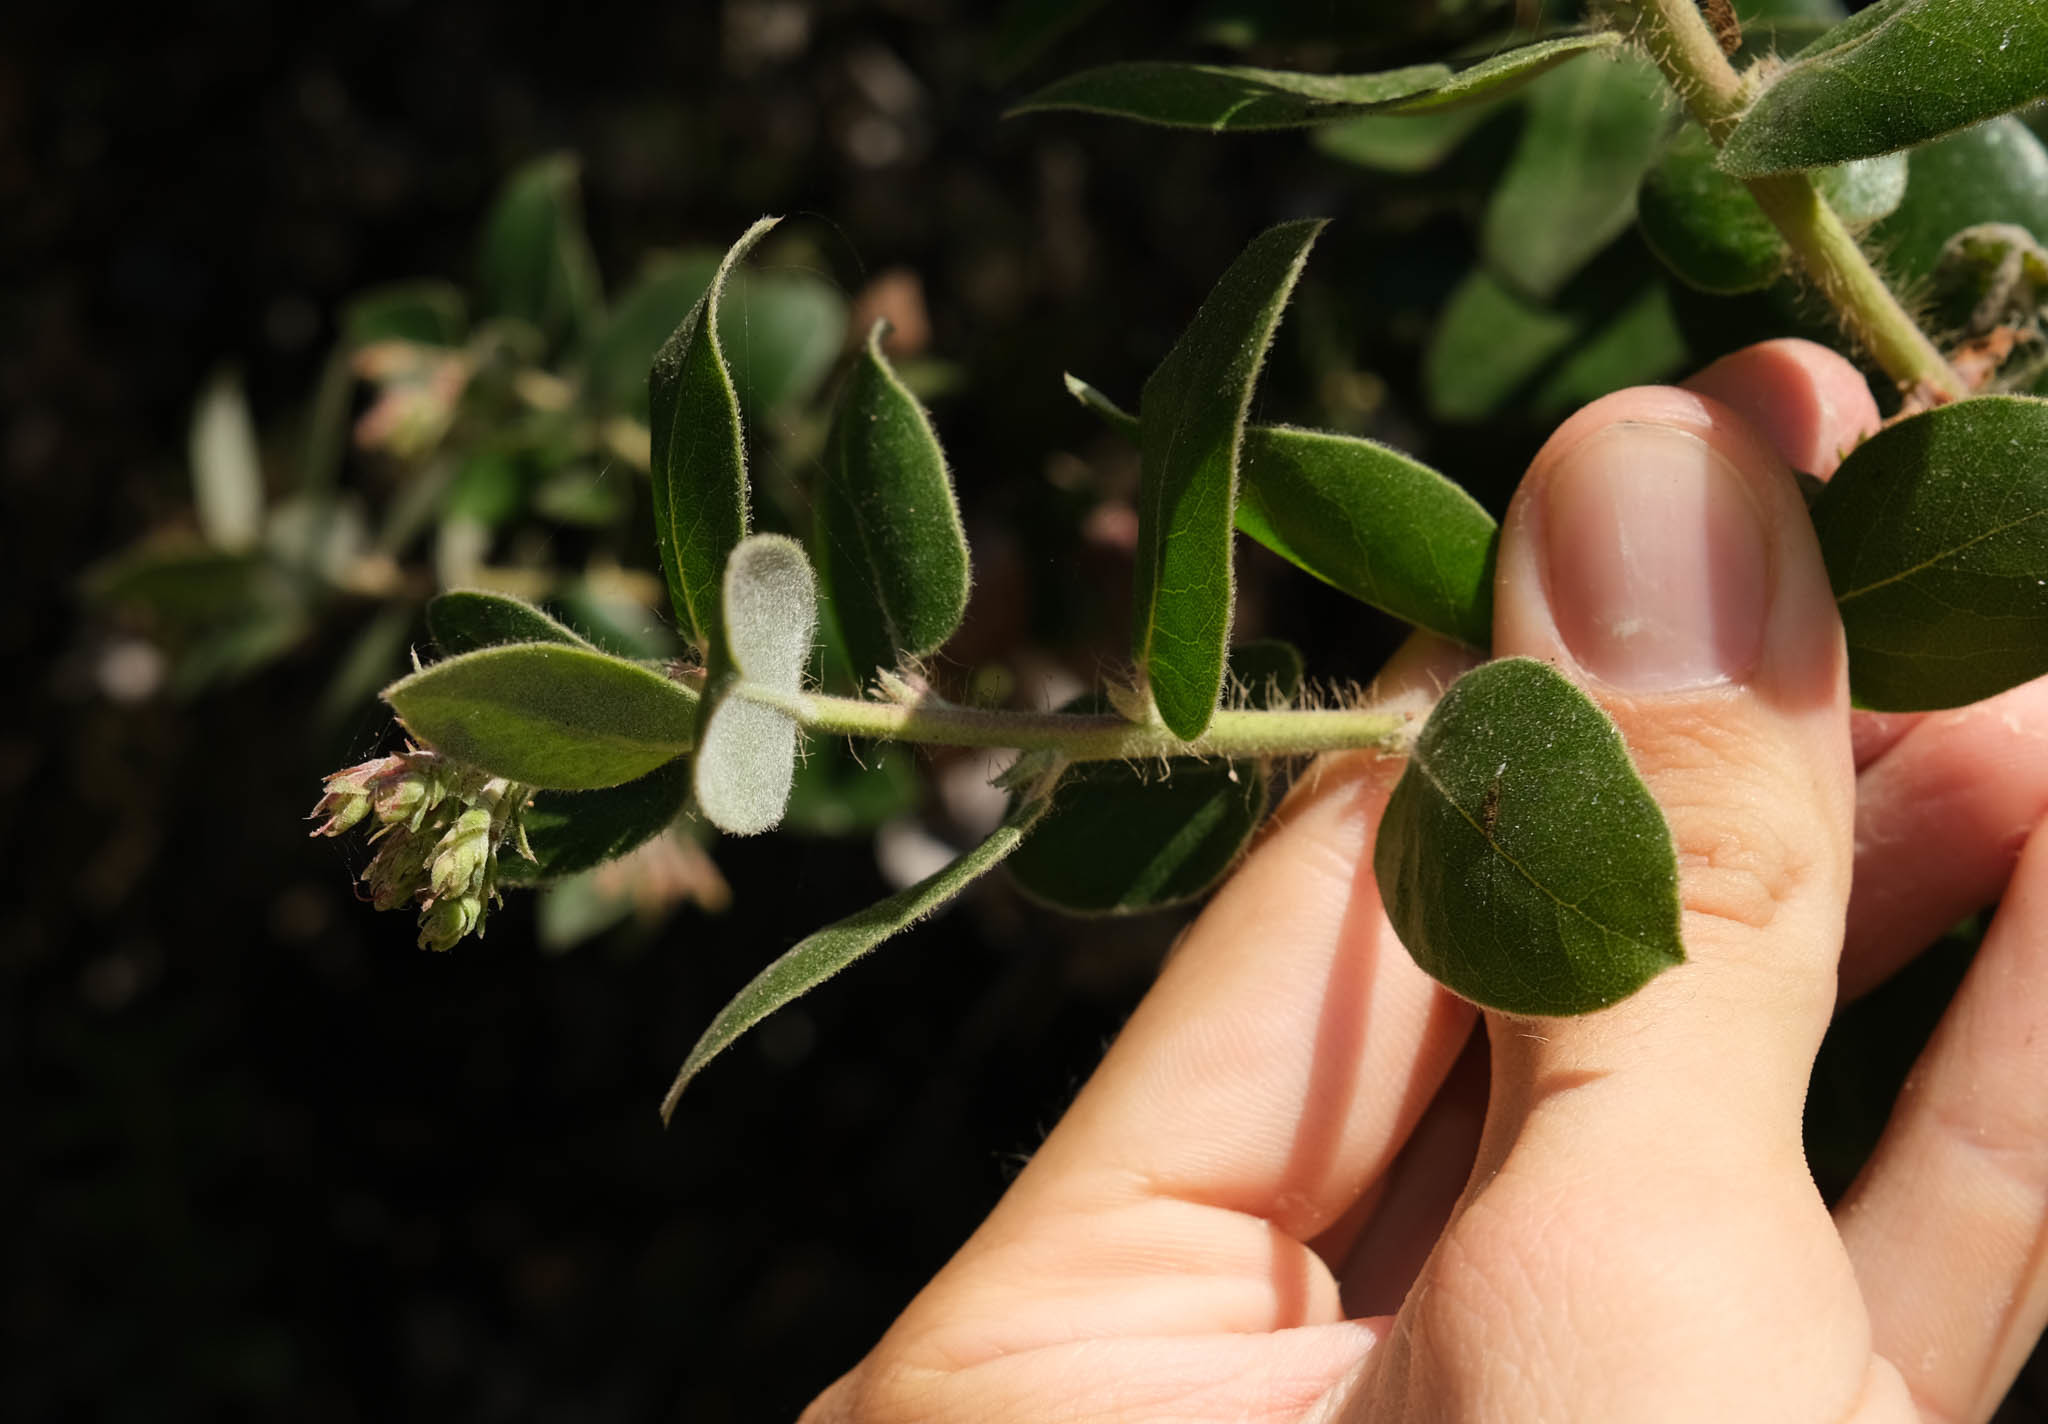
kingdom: Plantae
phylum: Tracheophyta
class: Magnoliopsida
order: Ericales
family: Ericaceae
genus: Arctostaphylos
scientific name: Arctostaphylos crustacea
